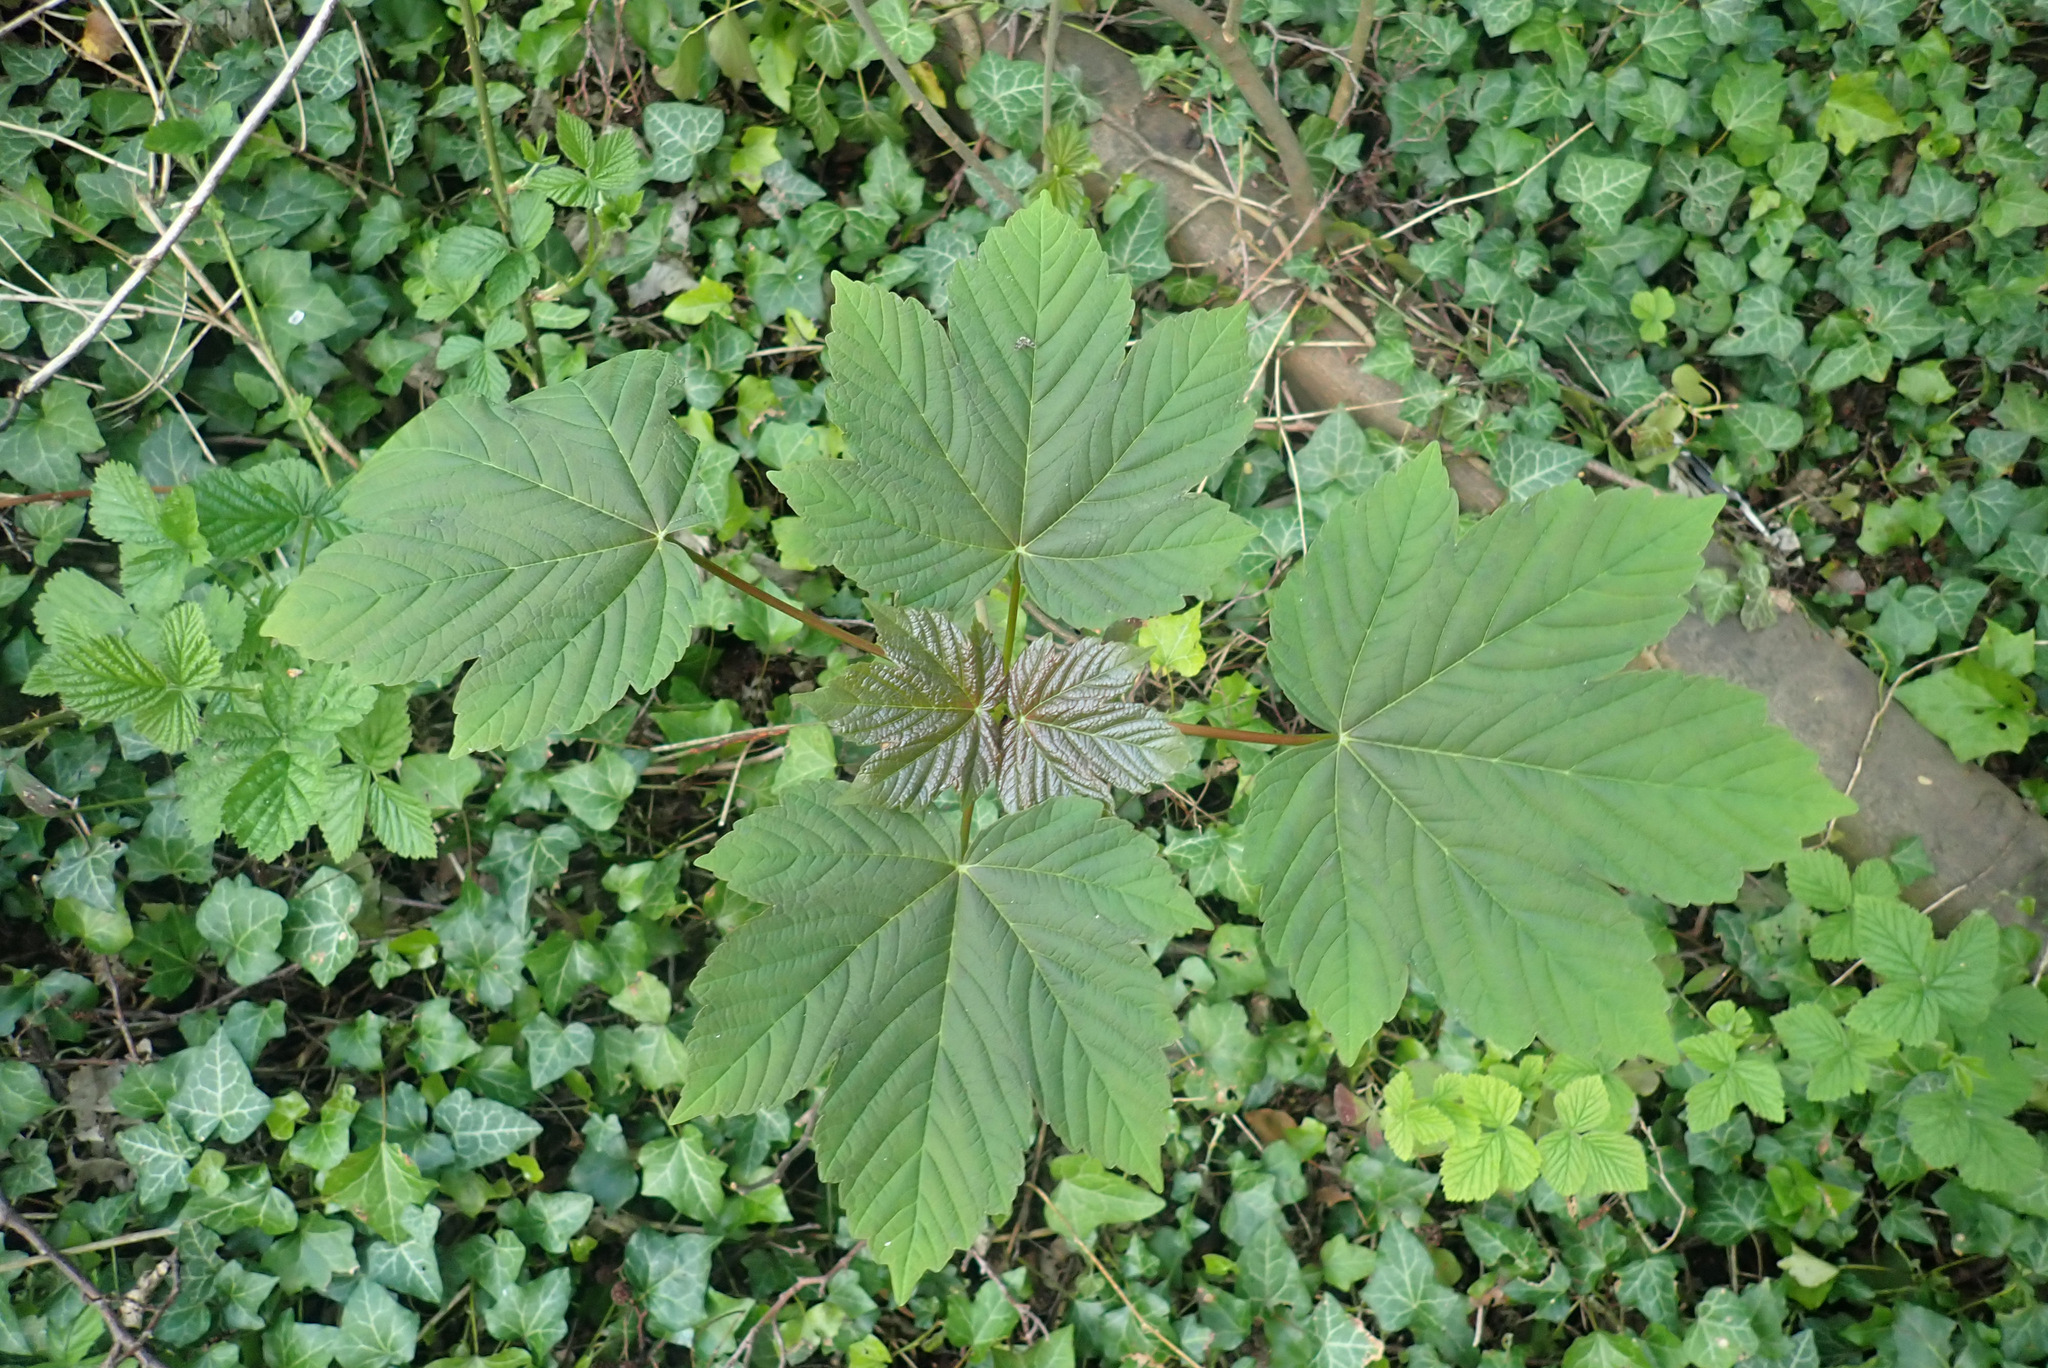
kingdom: Plantae
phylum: Tracheophyta
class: Magnoliopsida
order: Sapindales
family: Sapindaceae
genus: Acer
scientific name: Acer pseudoplatanus
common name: Sycamore
